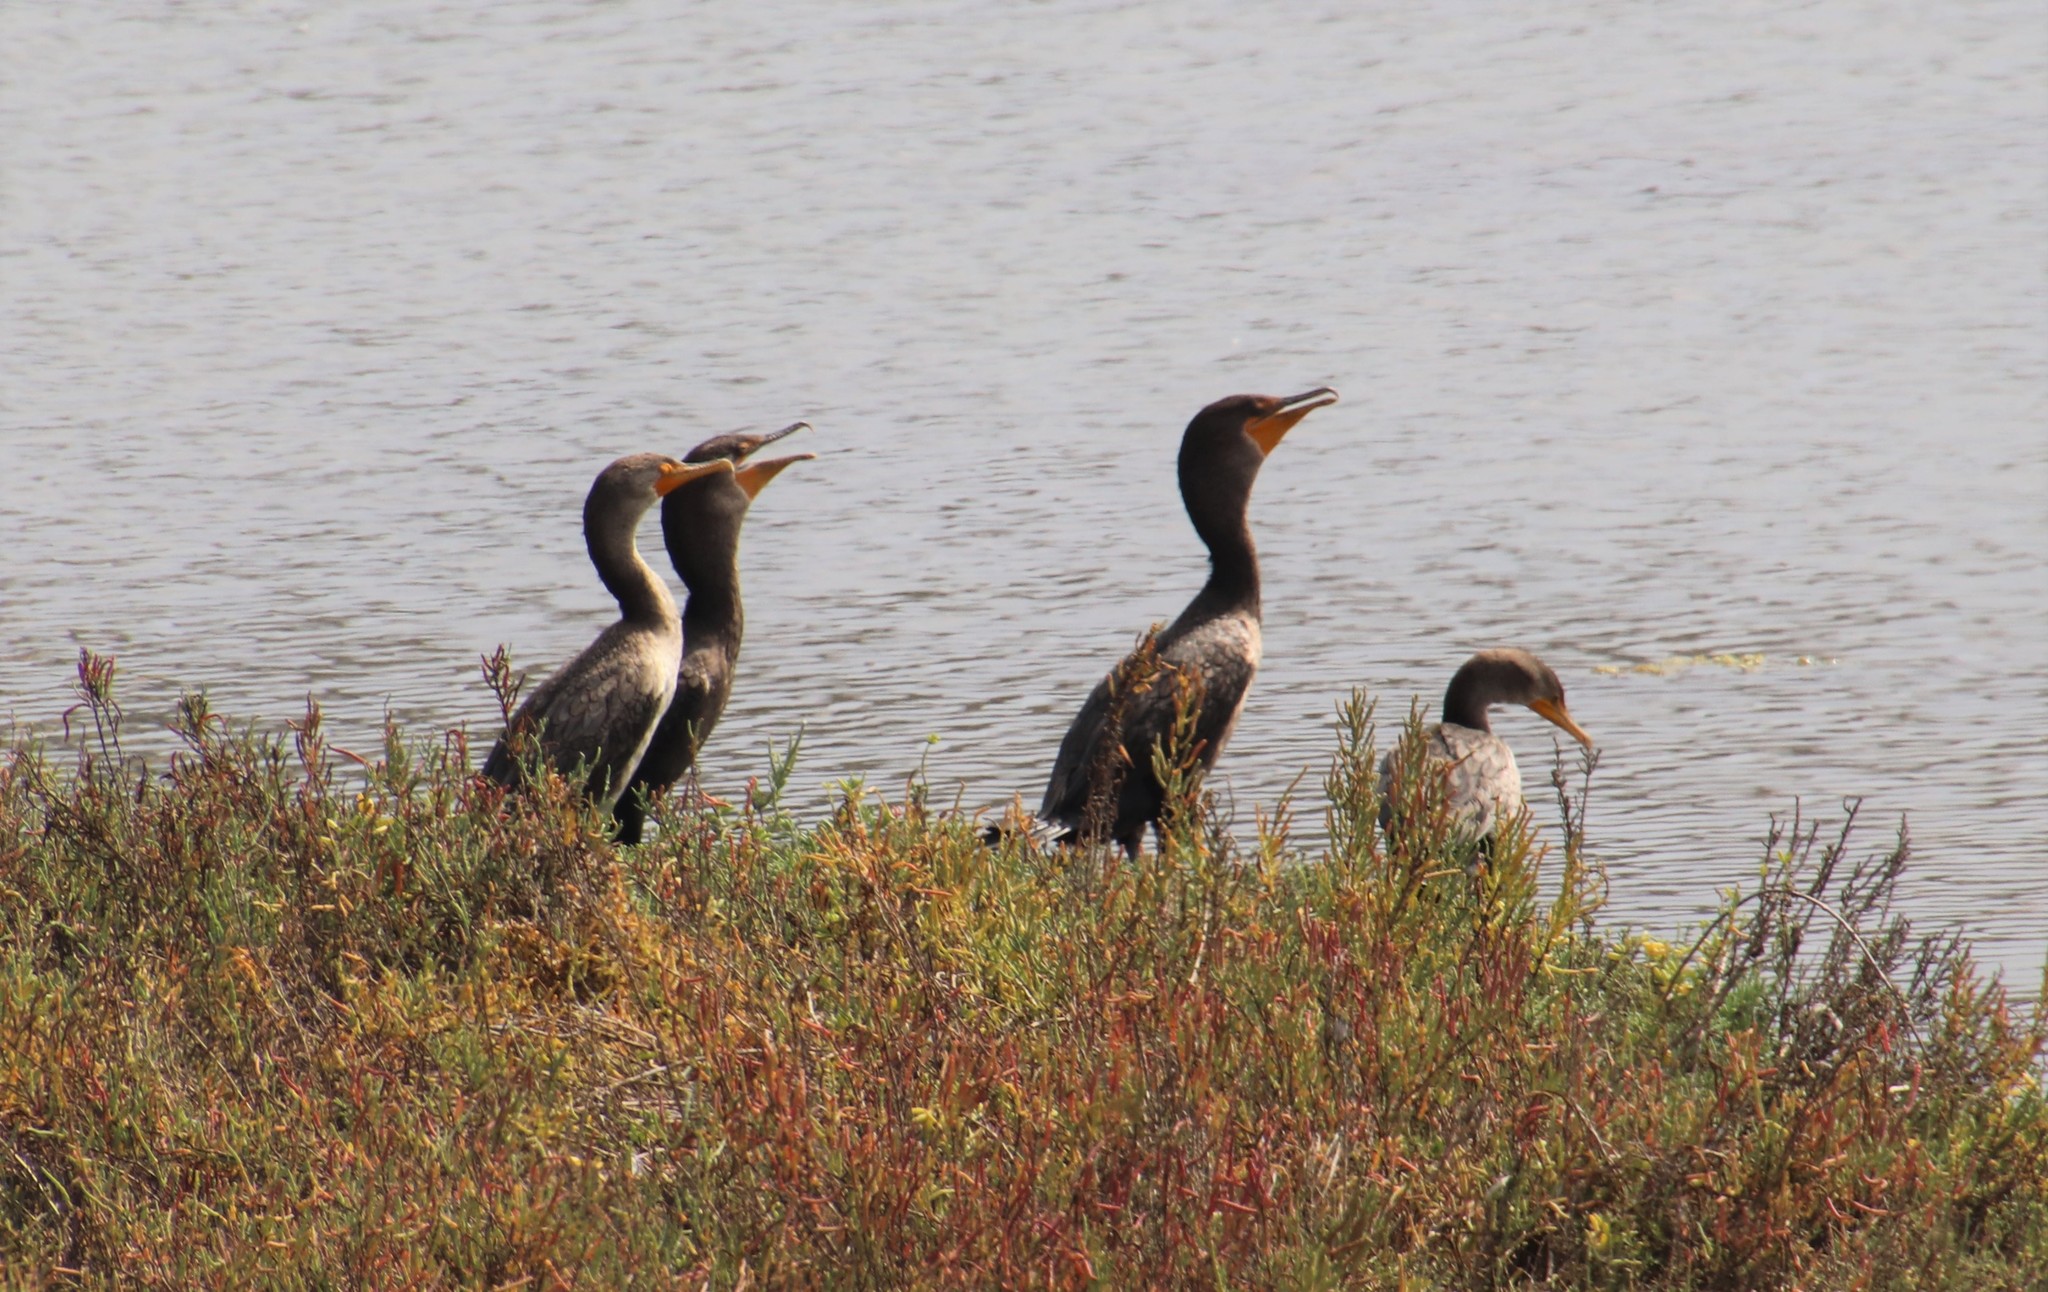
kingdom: Animalia
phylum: Chordata
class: Aves
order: Suliformes
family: Phalacrocoracidae
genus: Phalacrocorax
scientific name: Phalacrocorax auritus
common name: Double-crested cormorant
